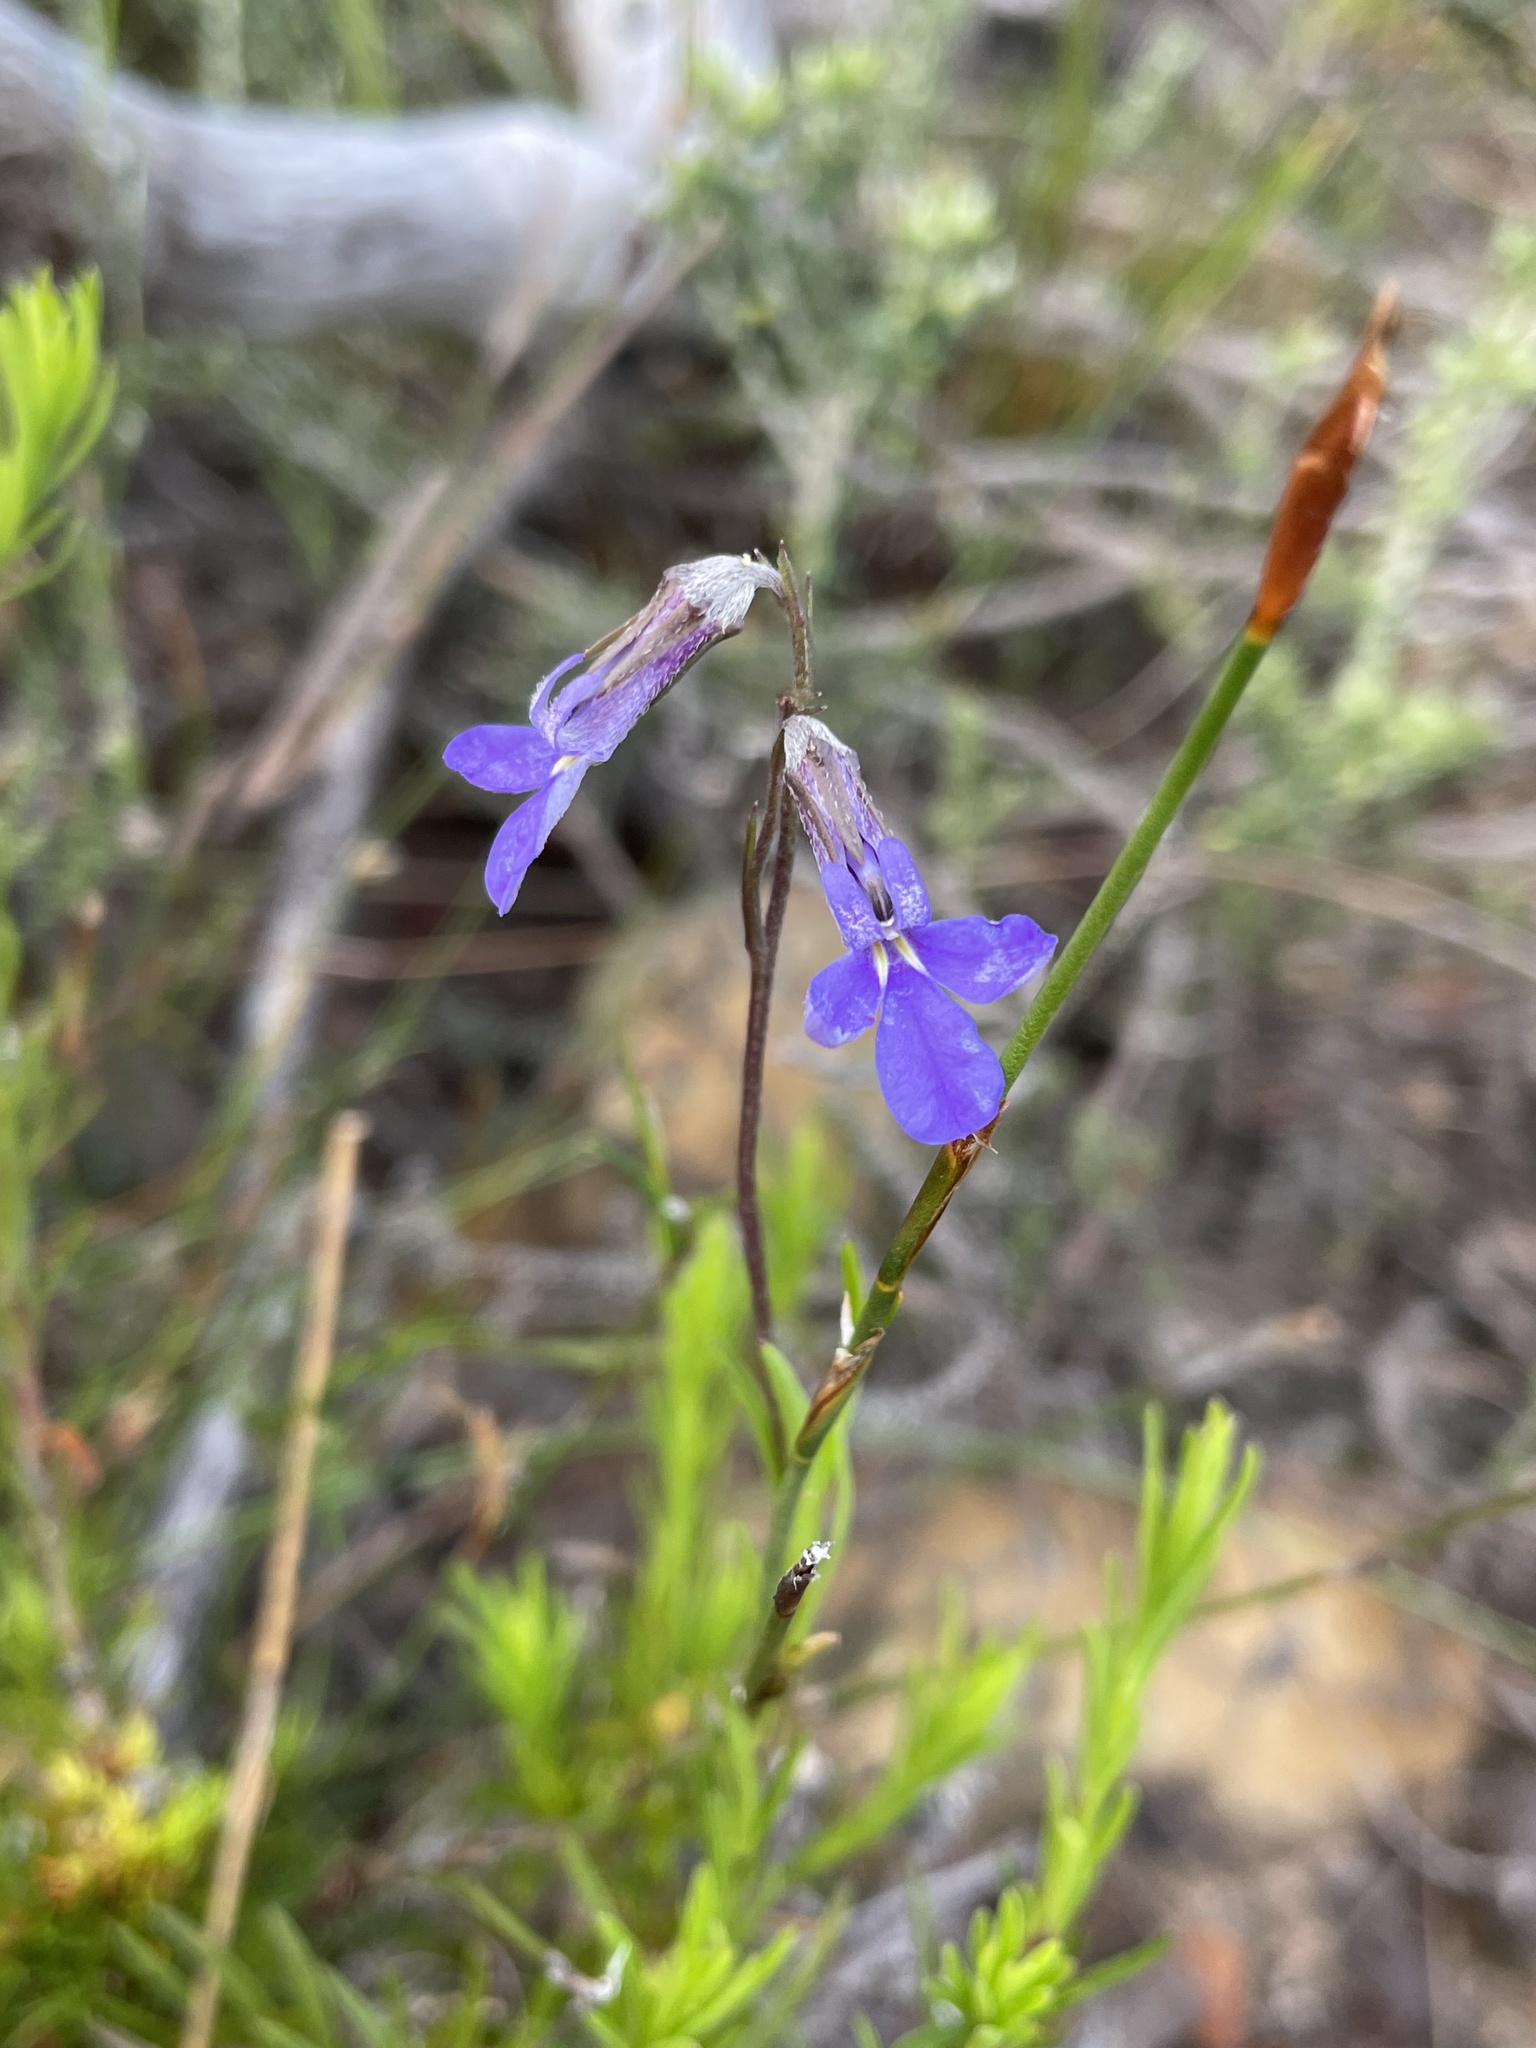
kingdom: Plantae
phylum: Tracheophyta
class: Magnoliopsida
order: Asterales
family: Campanulaceae
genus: Lobelia
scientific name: Lobelia pinifolia
